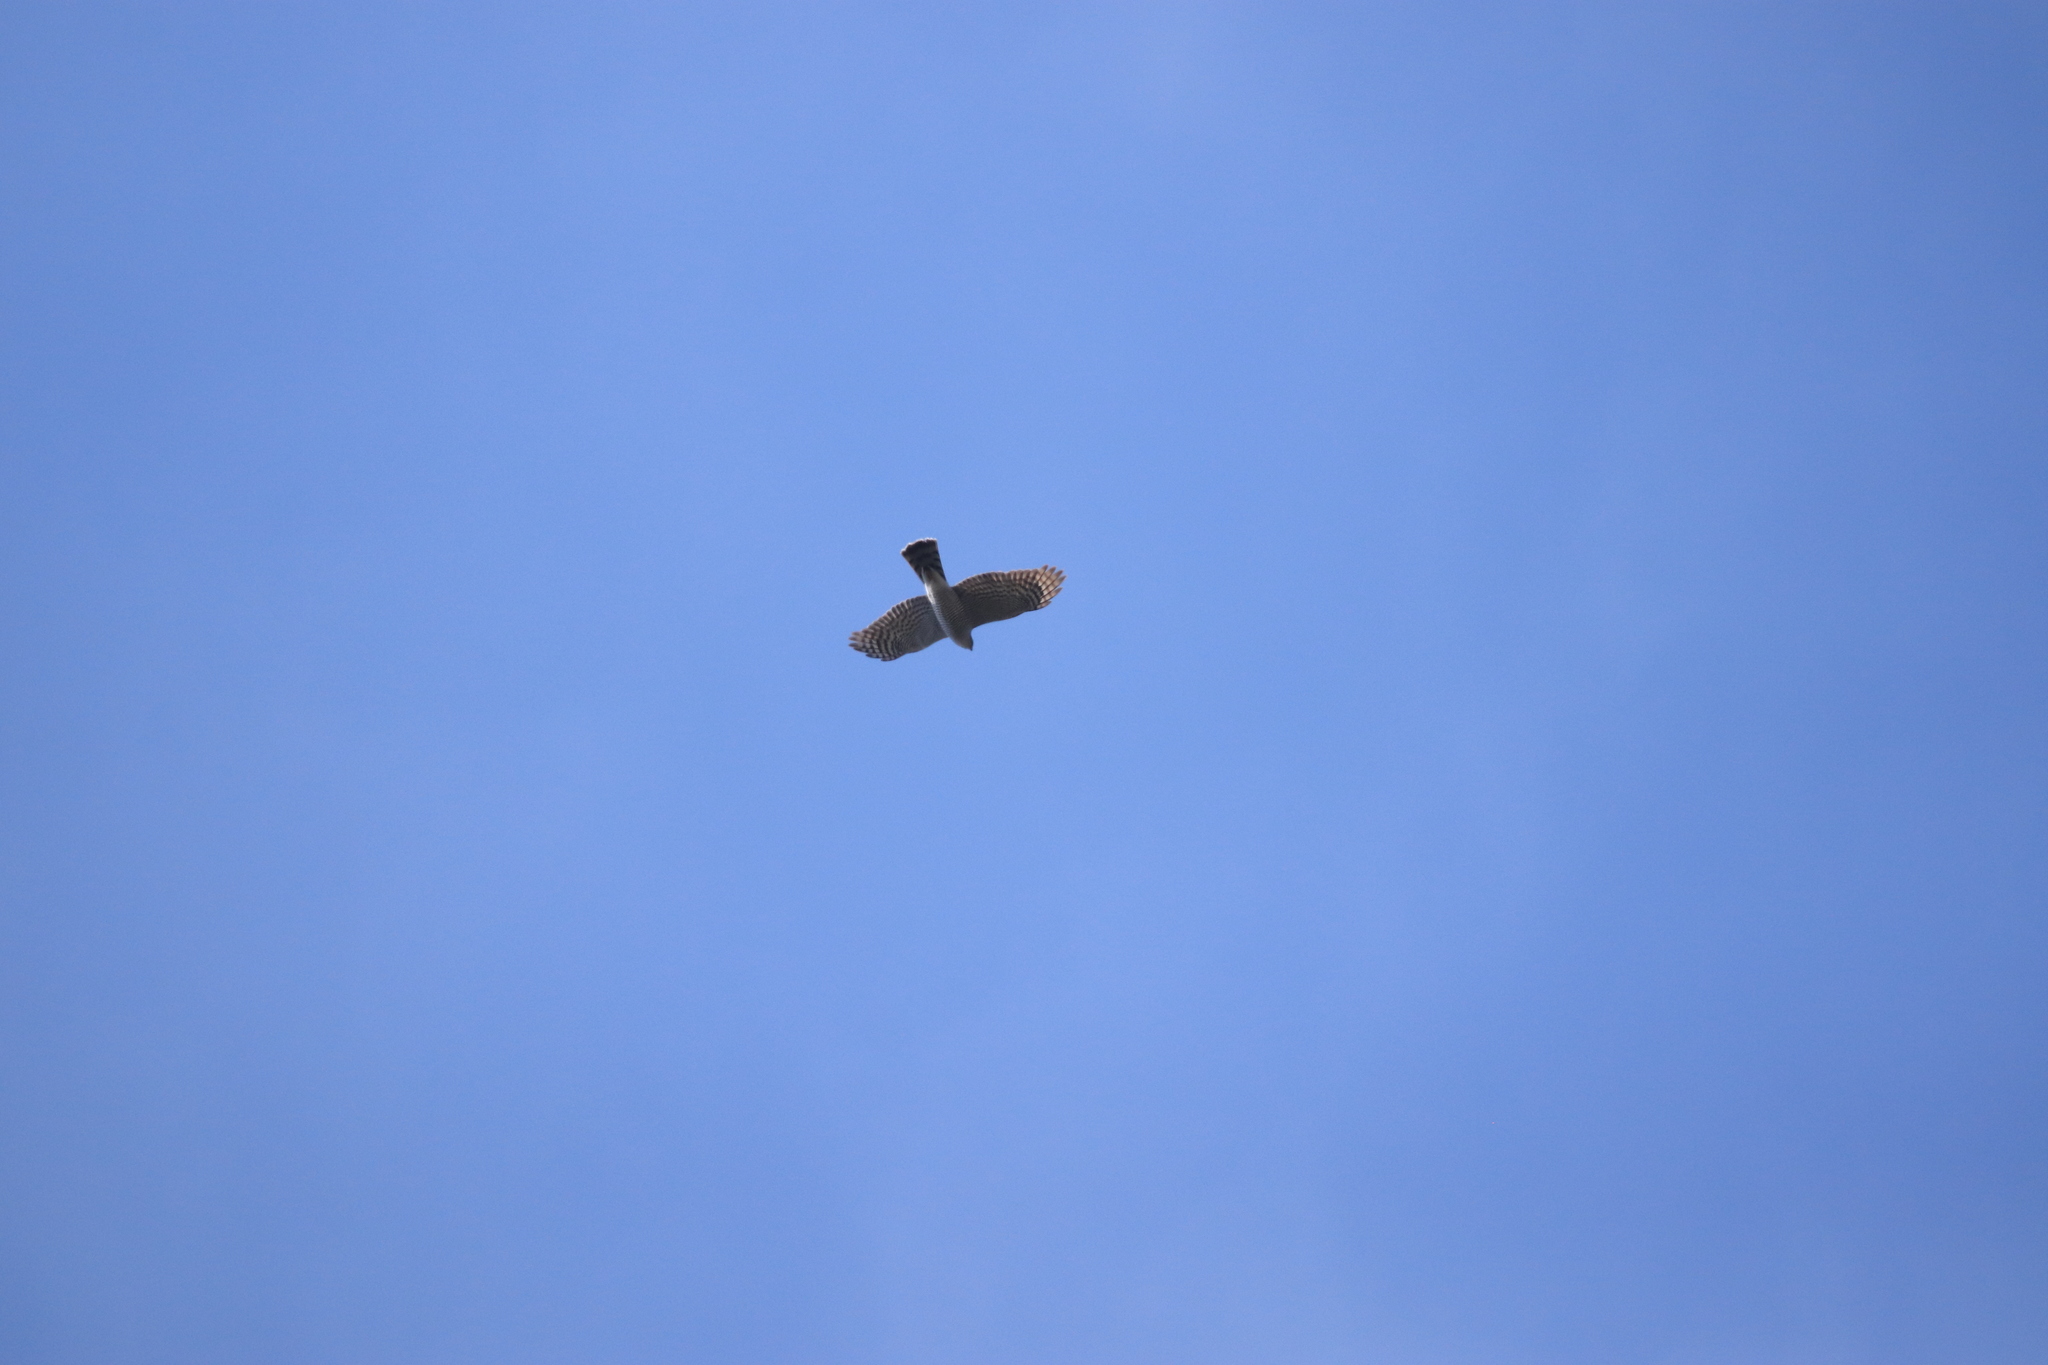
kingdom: Animalia
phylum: Chordata
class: Aves
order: Accipitriformes
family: Accipitridae
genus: Accipiter
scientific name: Accipiter nisus
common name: Eurasian sparrowhawk
